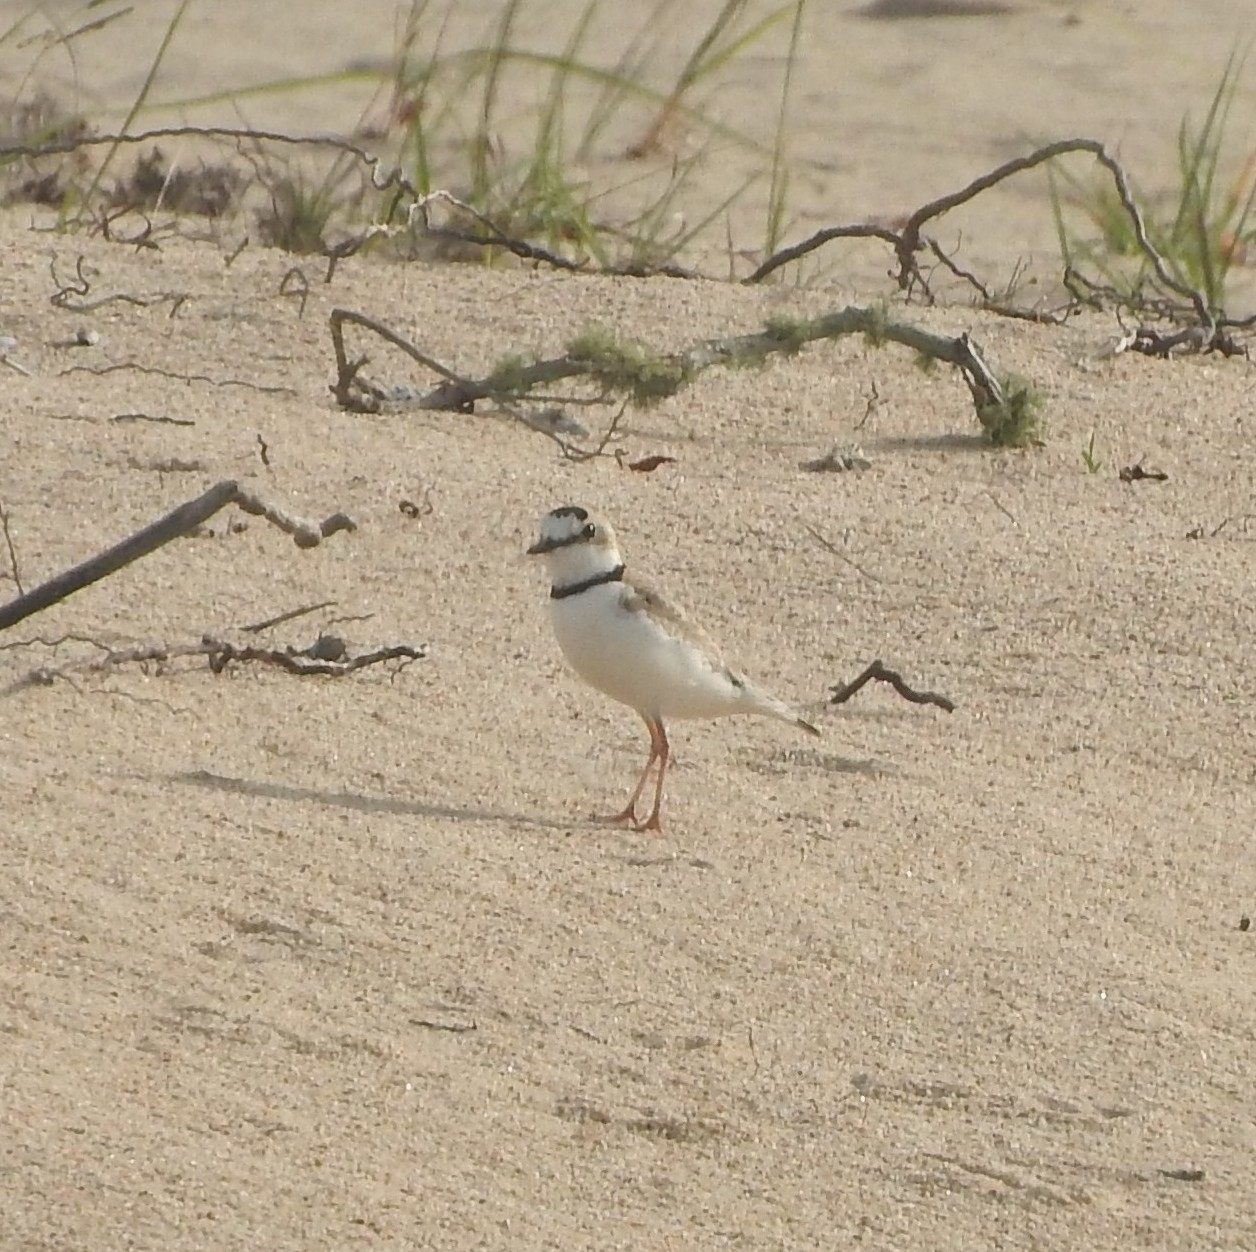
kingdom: Animalia
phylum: Chordata
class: Aves
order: Charadriiformes
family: Charadriidae
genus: Anarhynchus
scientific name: Anarhynchus
